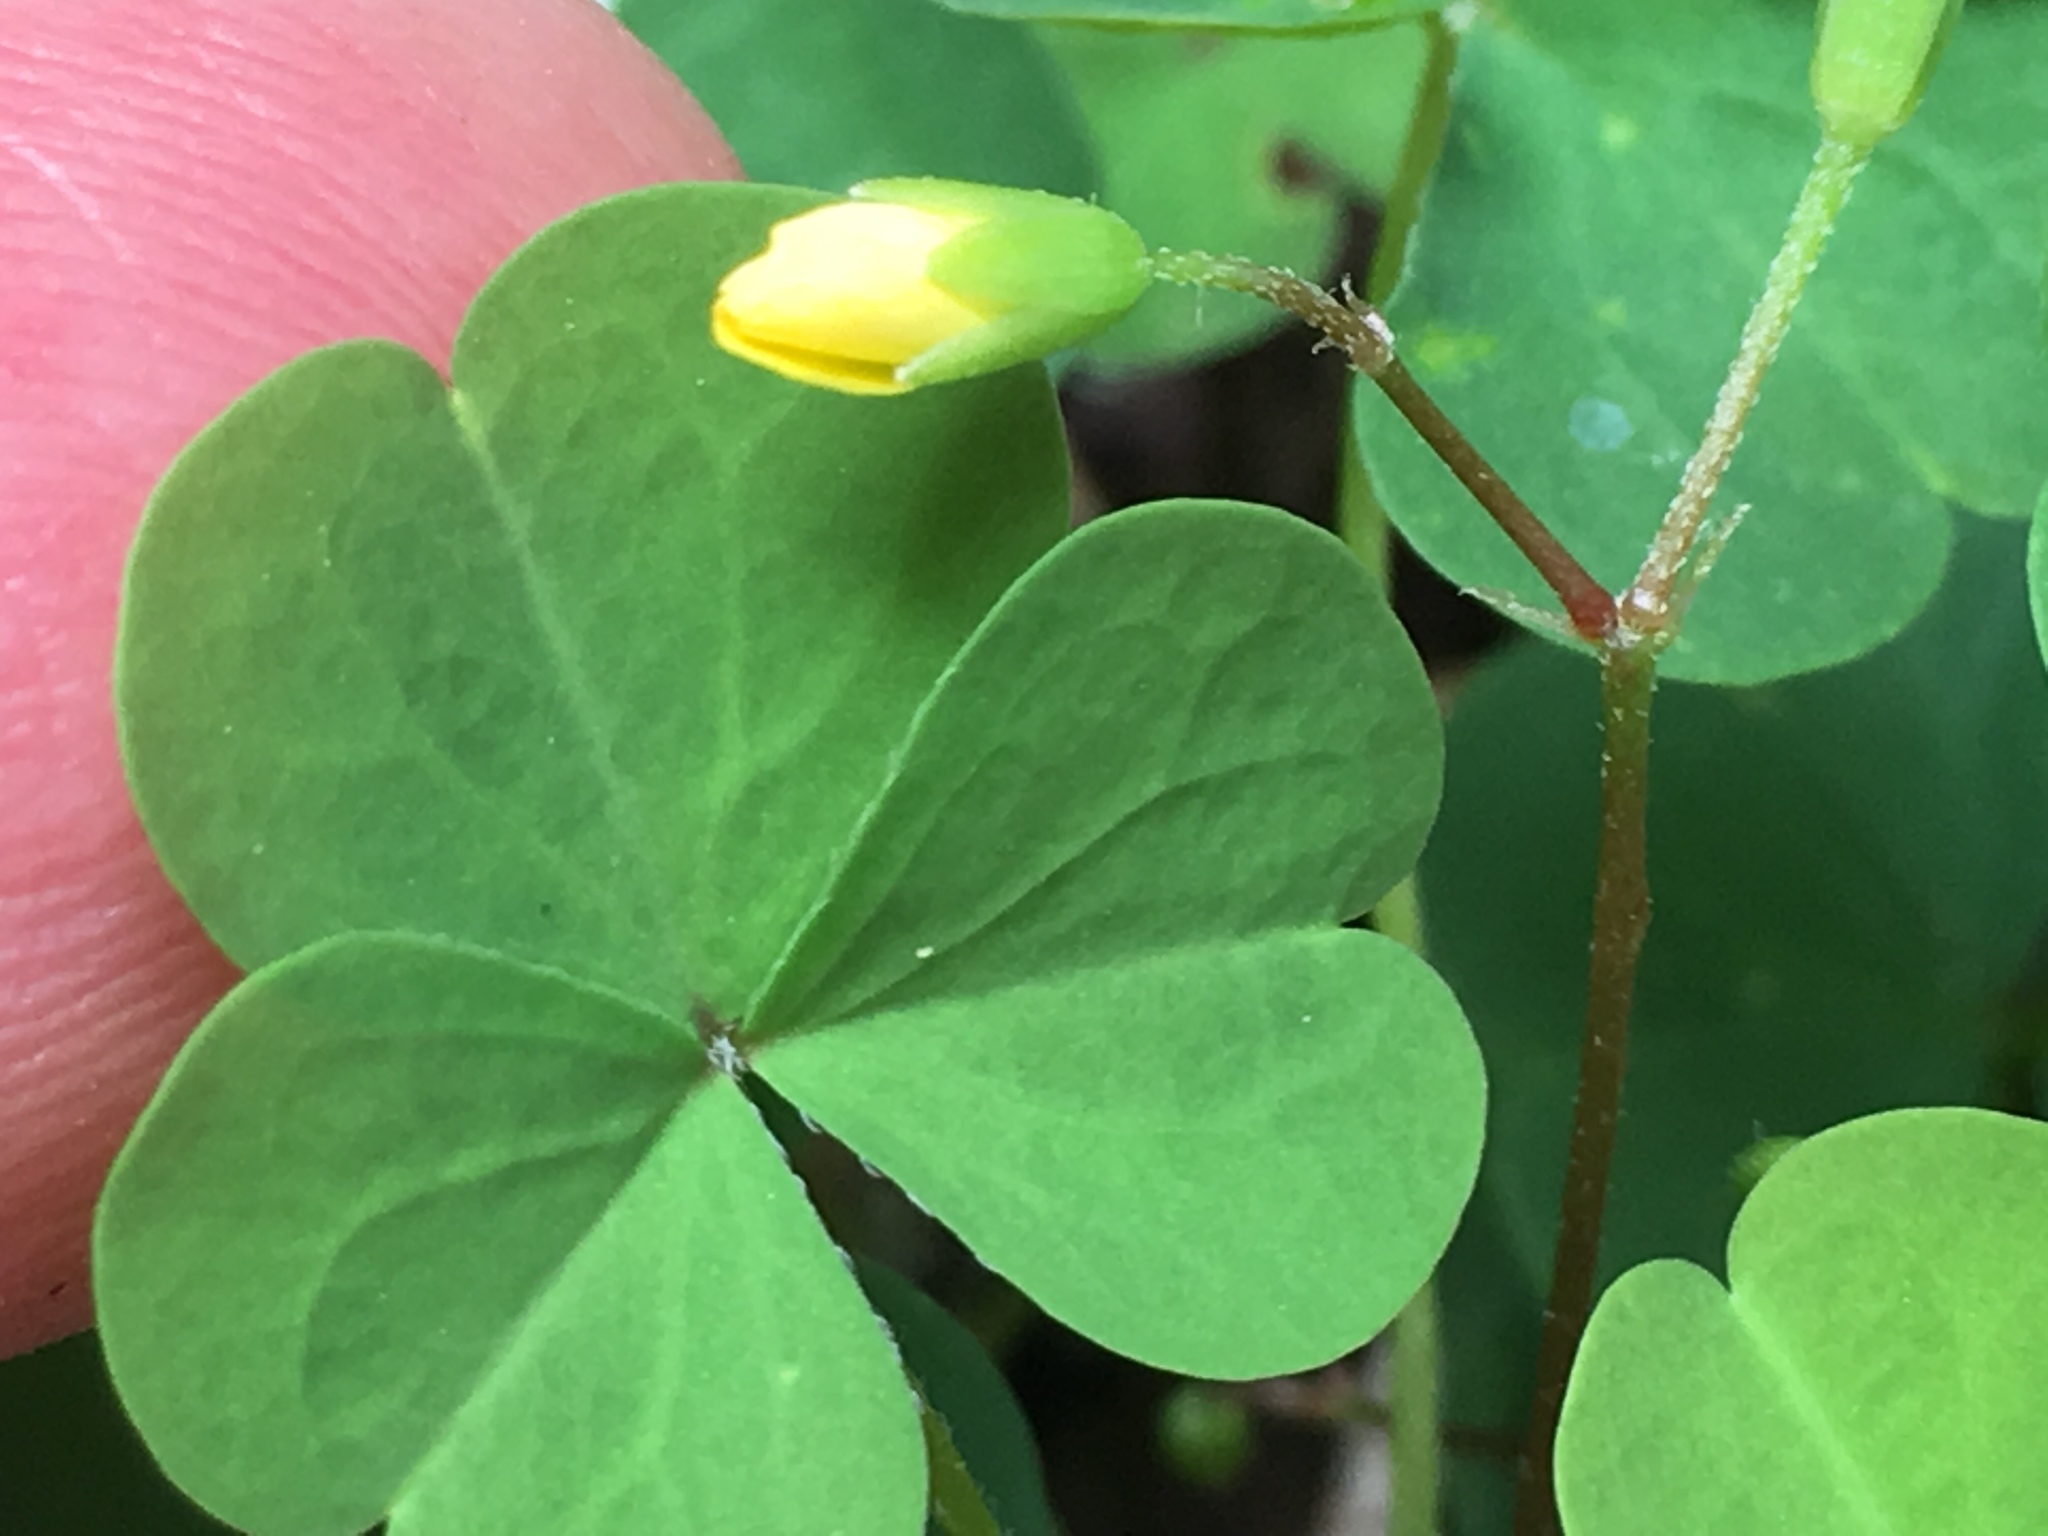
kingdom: Plantae
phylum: Tracheophyta
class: Magnoliopsida
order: Oxalidales
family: Oxalidaceae
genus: Oxalis
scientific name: Oxalis dillenii
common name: Sussex yellow-sorrel
